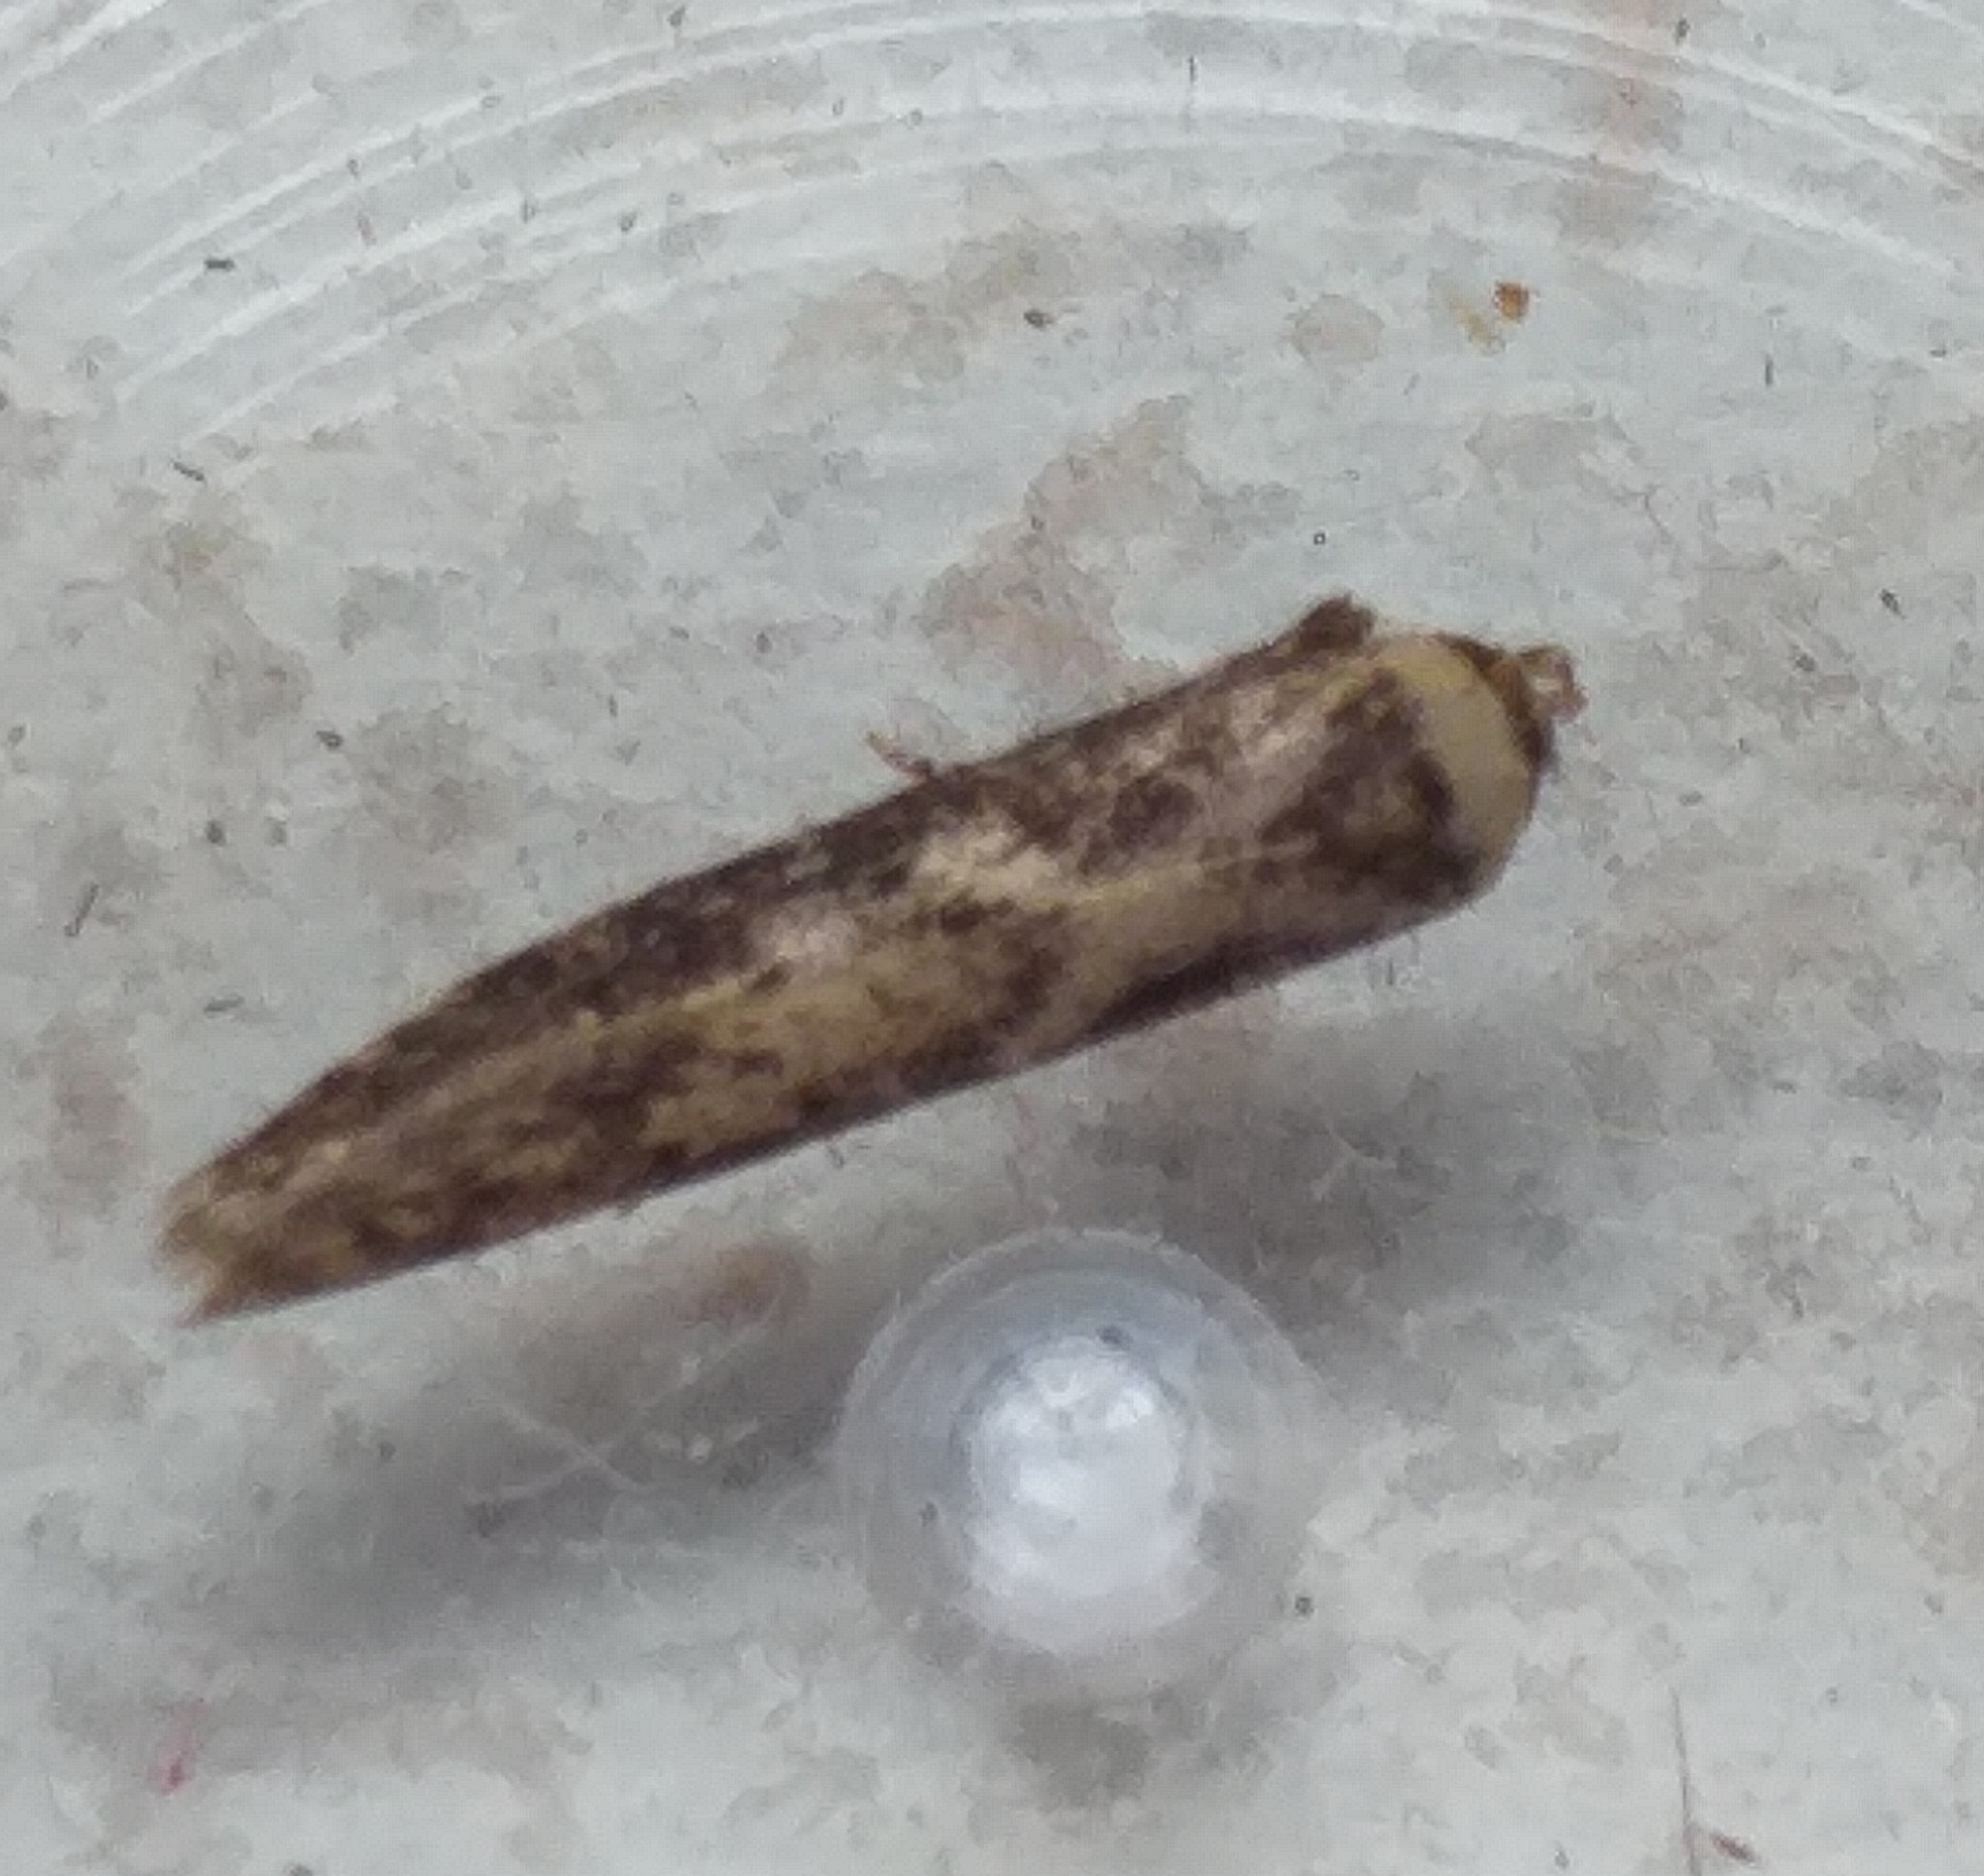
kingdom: Animalia
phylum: Arthropoda
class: Insecta
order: Lepidoptera
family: Blastobasidae
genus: Blastobasis
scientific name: Blastobasis adustella
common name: Dingy dowd
